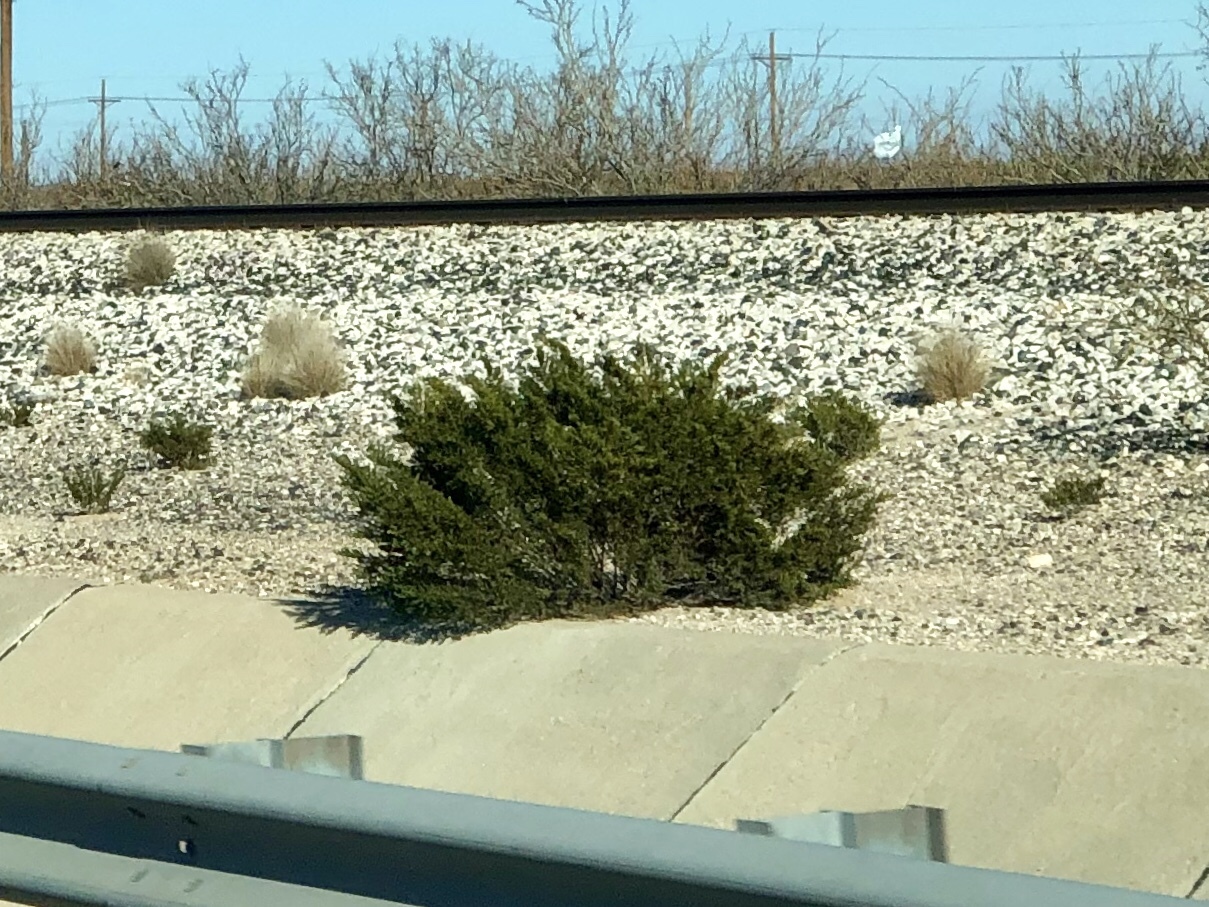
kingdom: Plantae
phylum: Tracheophyta
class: Magnoliopsida
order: Zygophyllales
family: Zygophyllaceae
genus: Larrea
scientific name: Larrea tridentata
